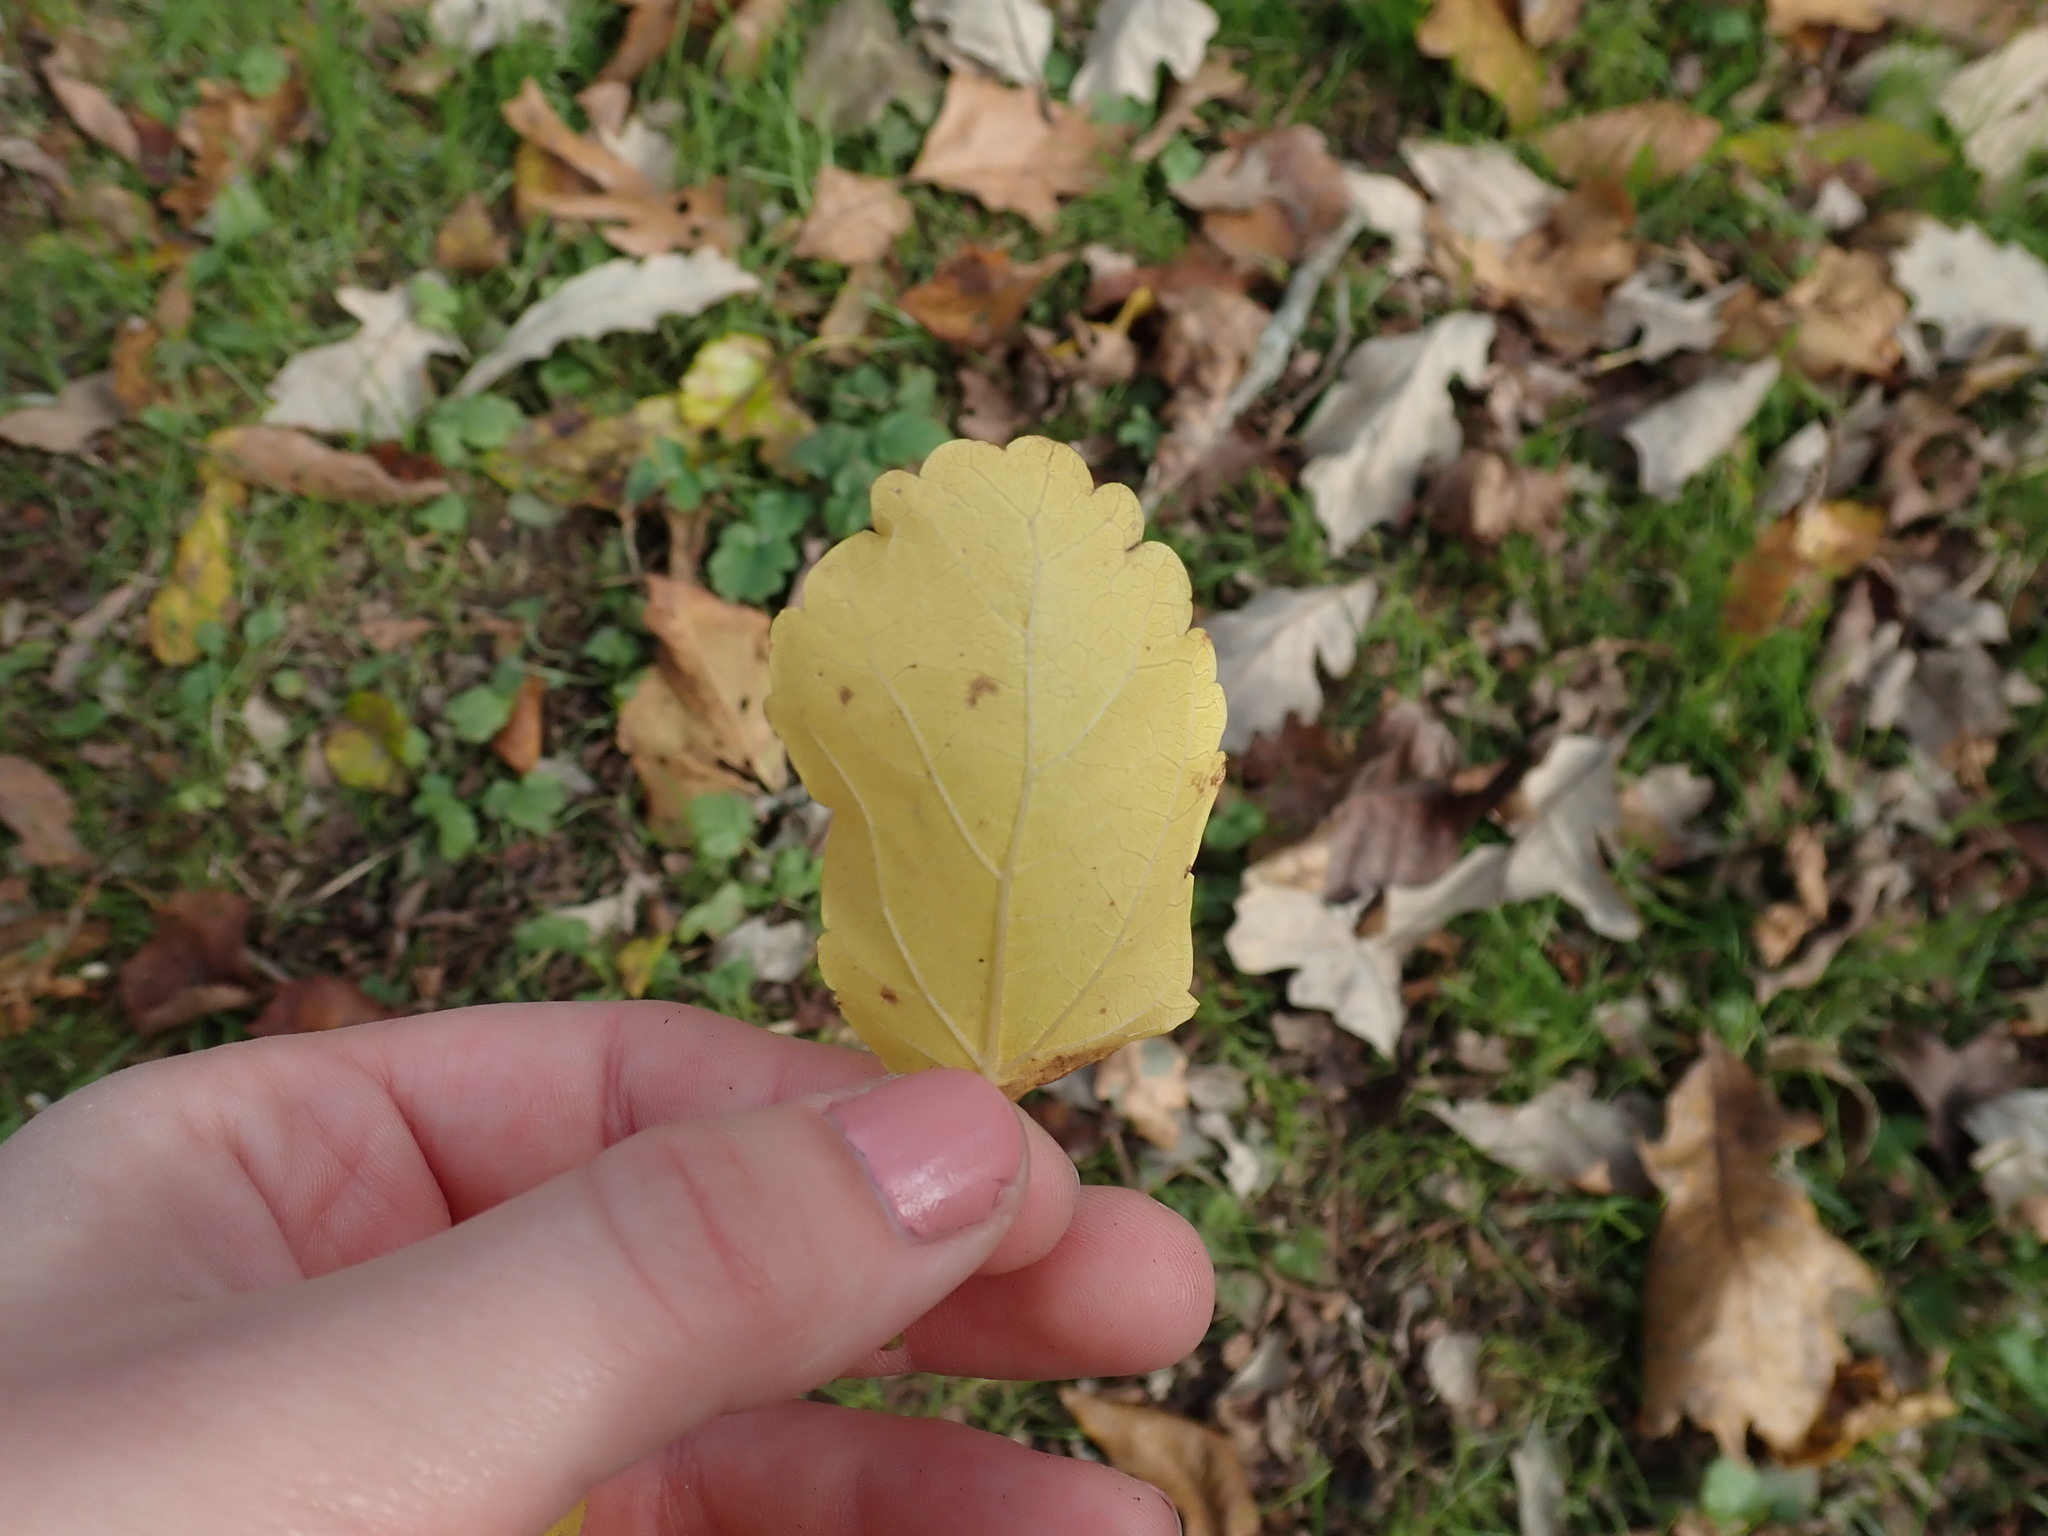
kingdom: Plantae
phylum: Tracheophyta
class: Magnoliopsida
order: Rosales
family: Moraceae
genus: Morus
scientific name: Morus alba
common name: White mulberry
